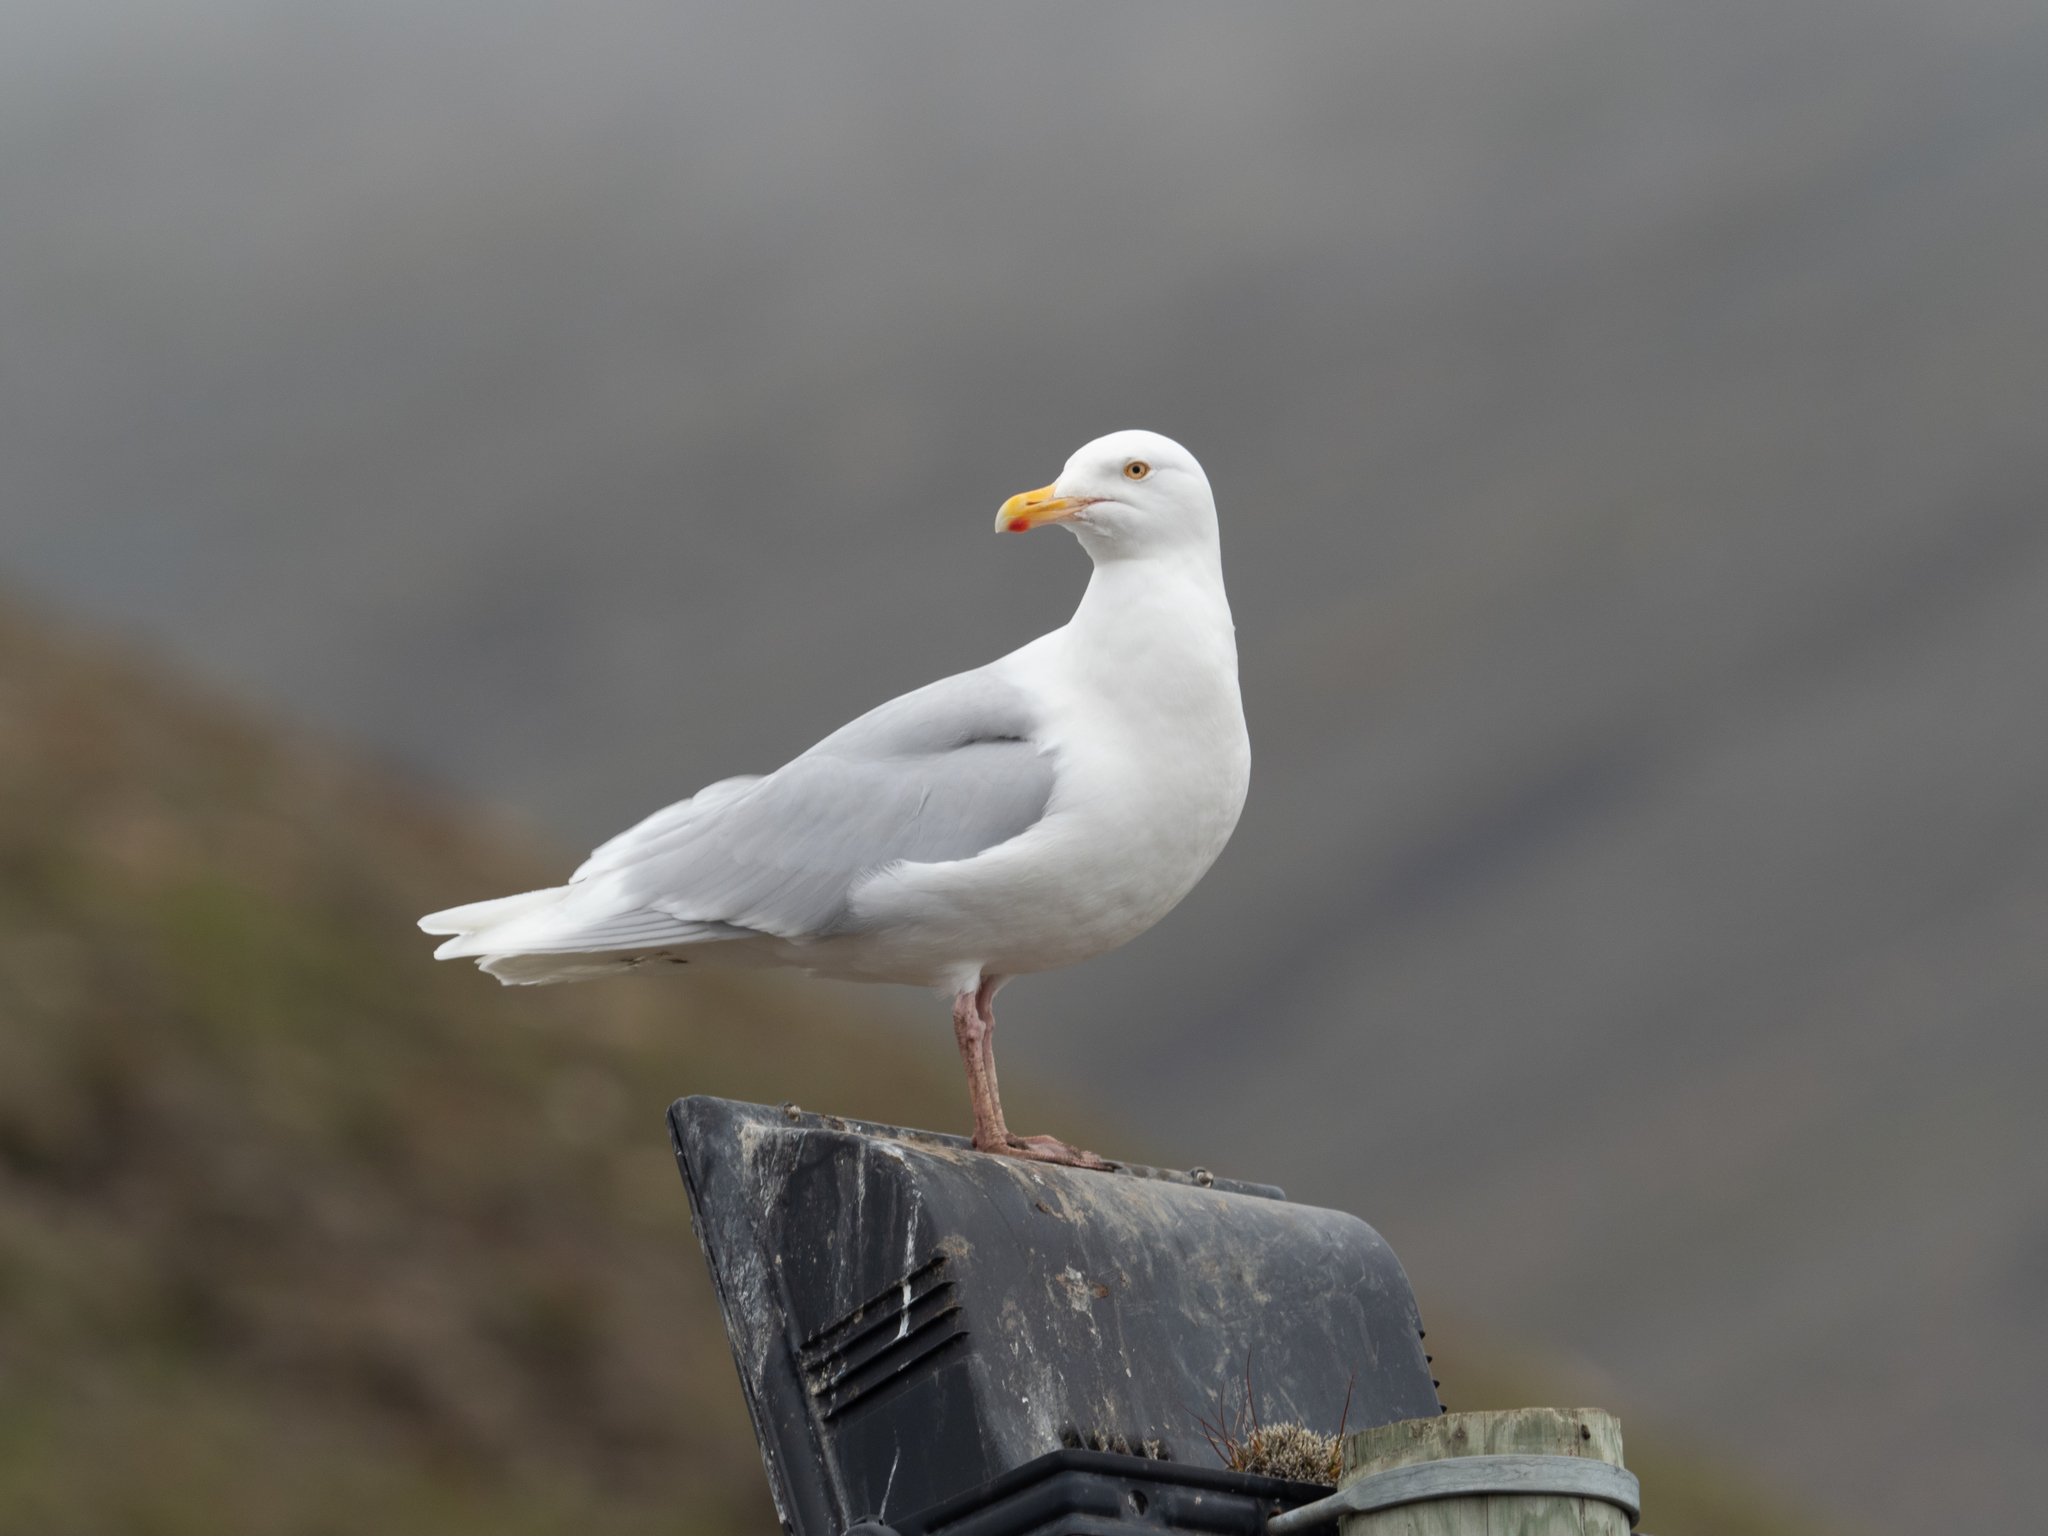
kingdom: Animalia
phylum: Chordata
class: Aves
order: Charadriiformes
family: Laridae
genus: Larus
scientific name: Larus hyperboreus
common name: Glaucous gull
